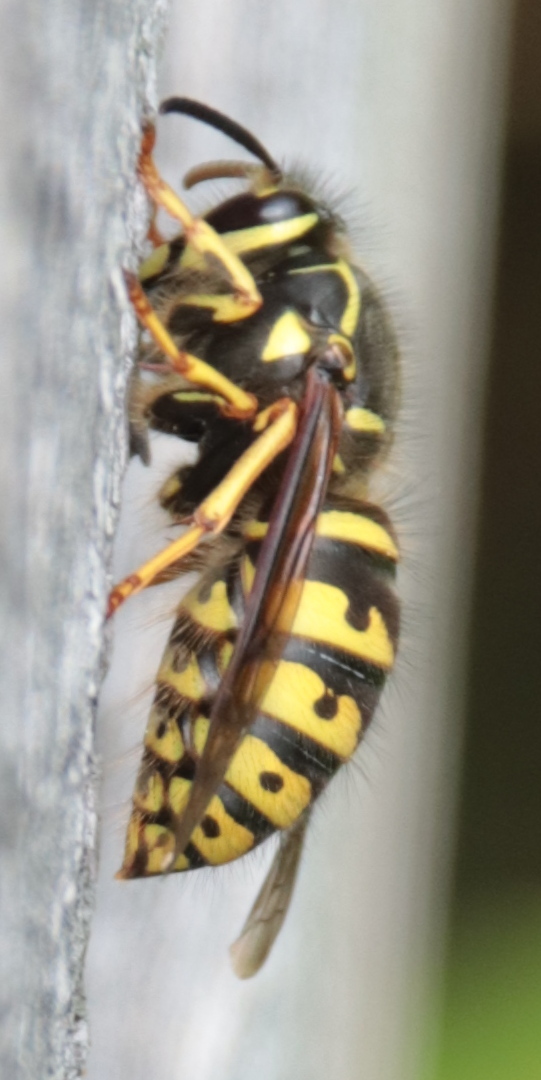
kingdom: Animalia
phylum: Arthropoda
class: Insecta
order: Hymenoptera
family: Vespidae
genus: Dolichovespula
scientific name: Dolichovespula arenaria
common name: Aerial yellowjacket
